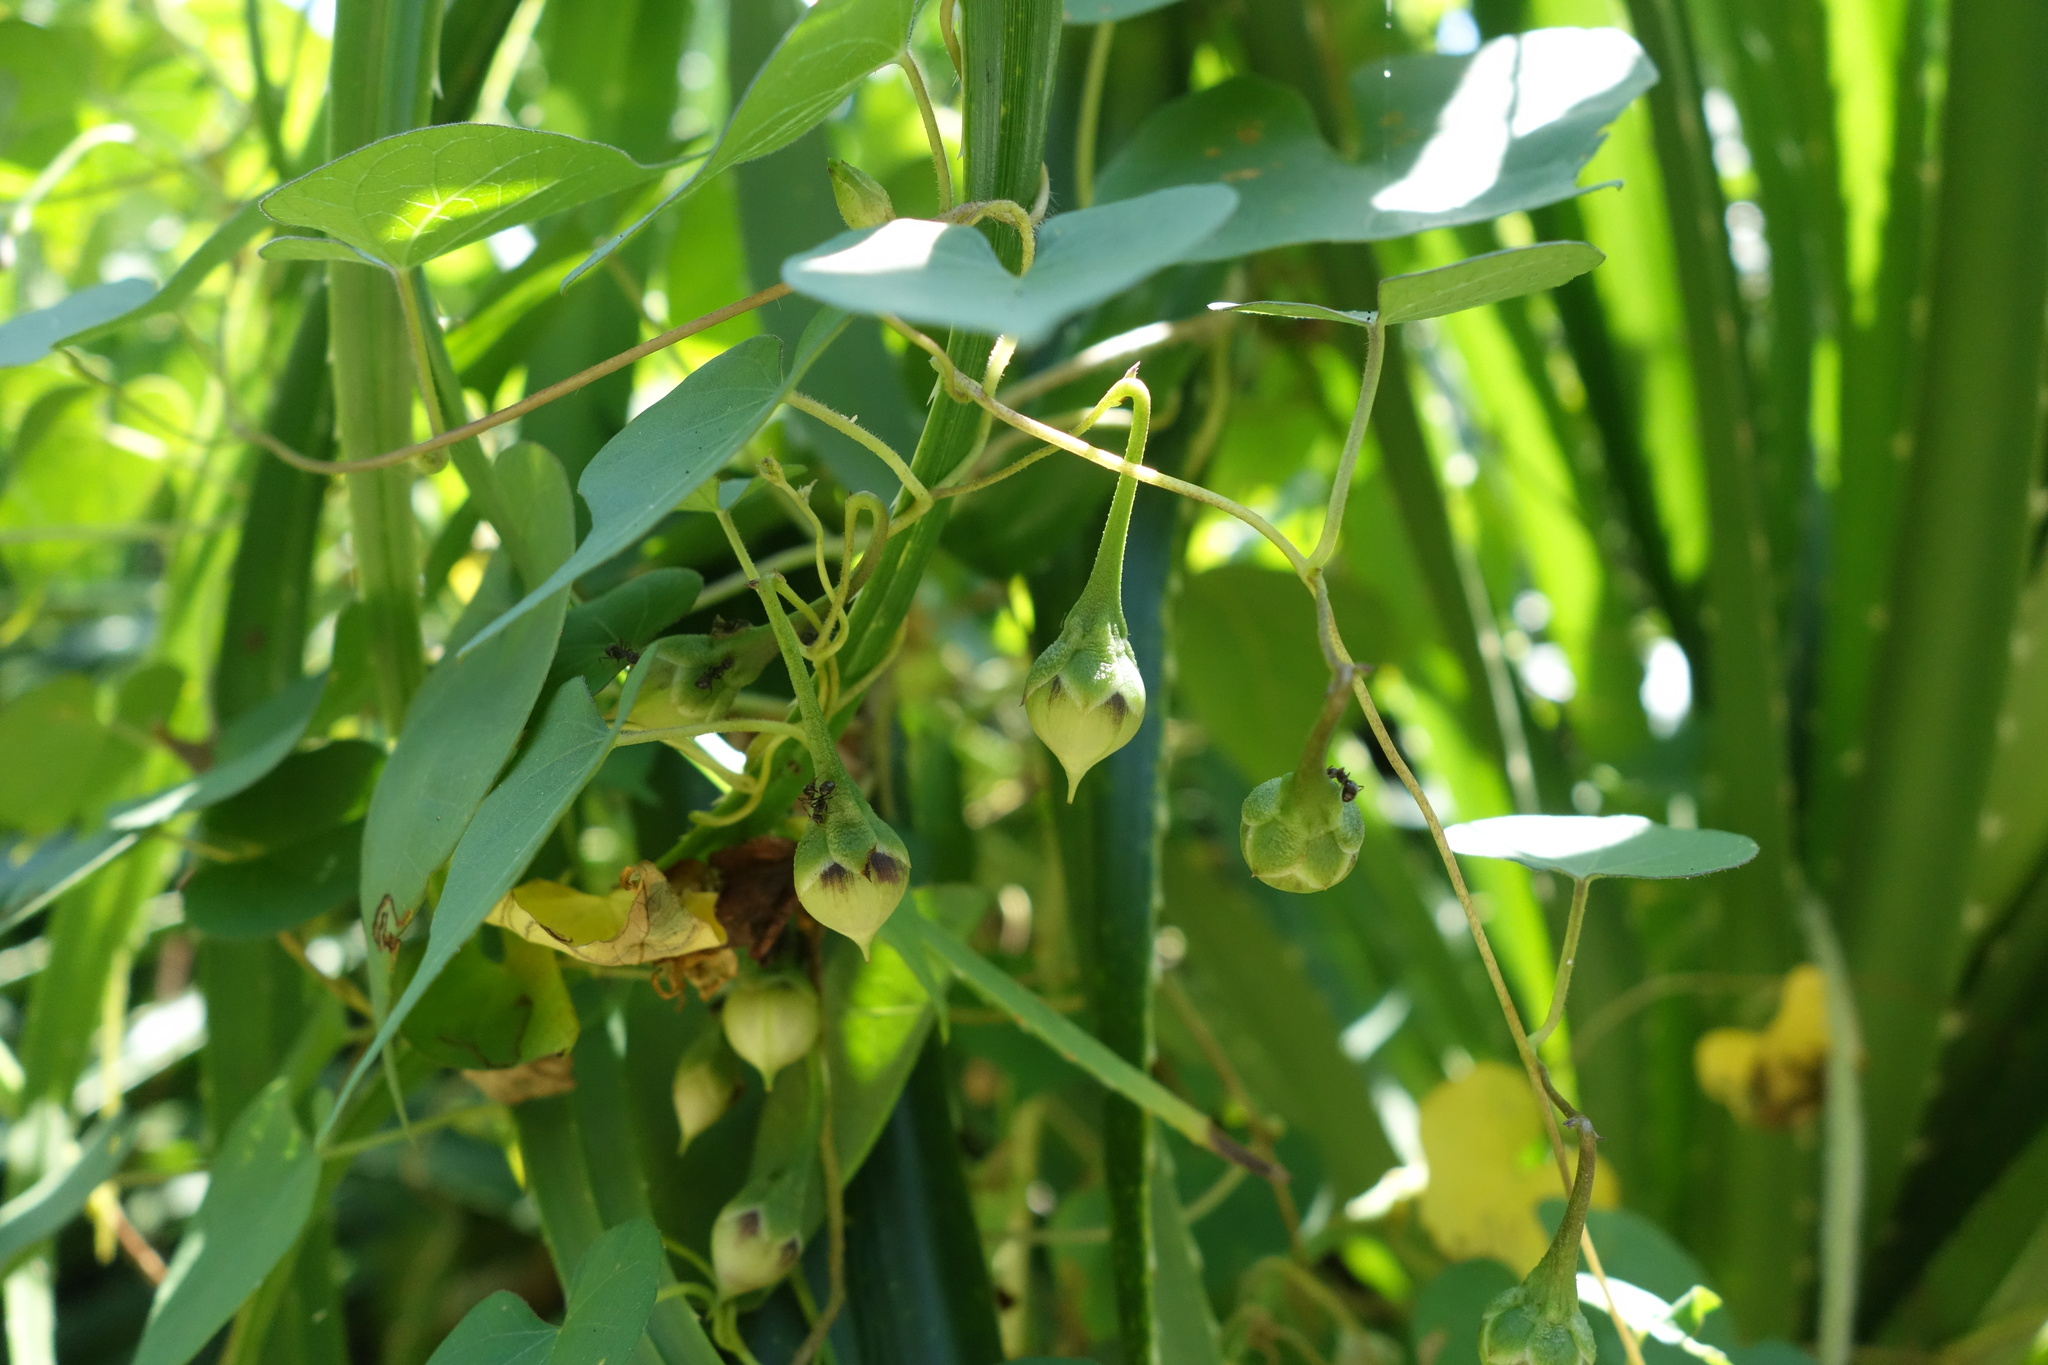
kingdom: Plantae
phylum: Tracheophyta
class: Magnoliopsida
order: Solanales
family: Convolvulaceae
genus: Ipomoea
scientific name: Ipomoea obscura
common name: Obscure morning-glory
